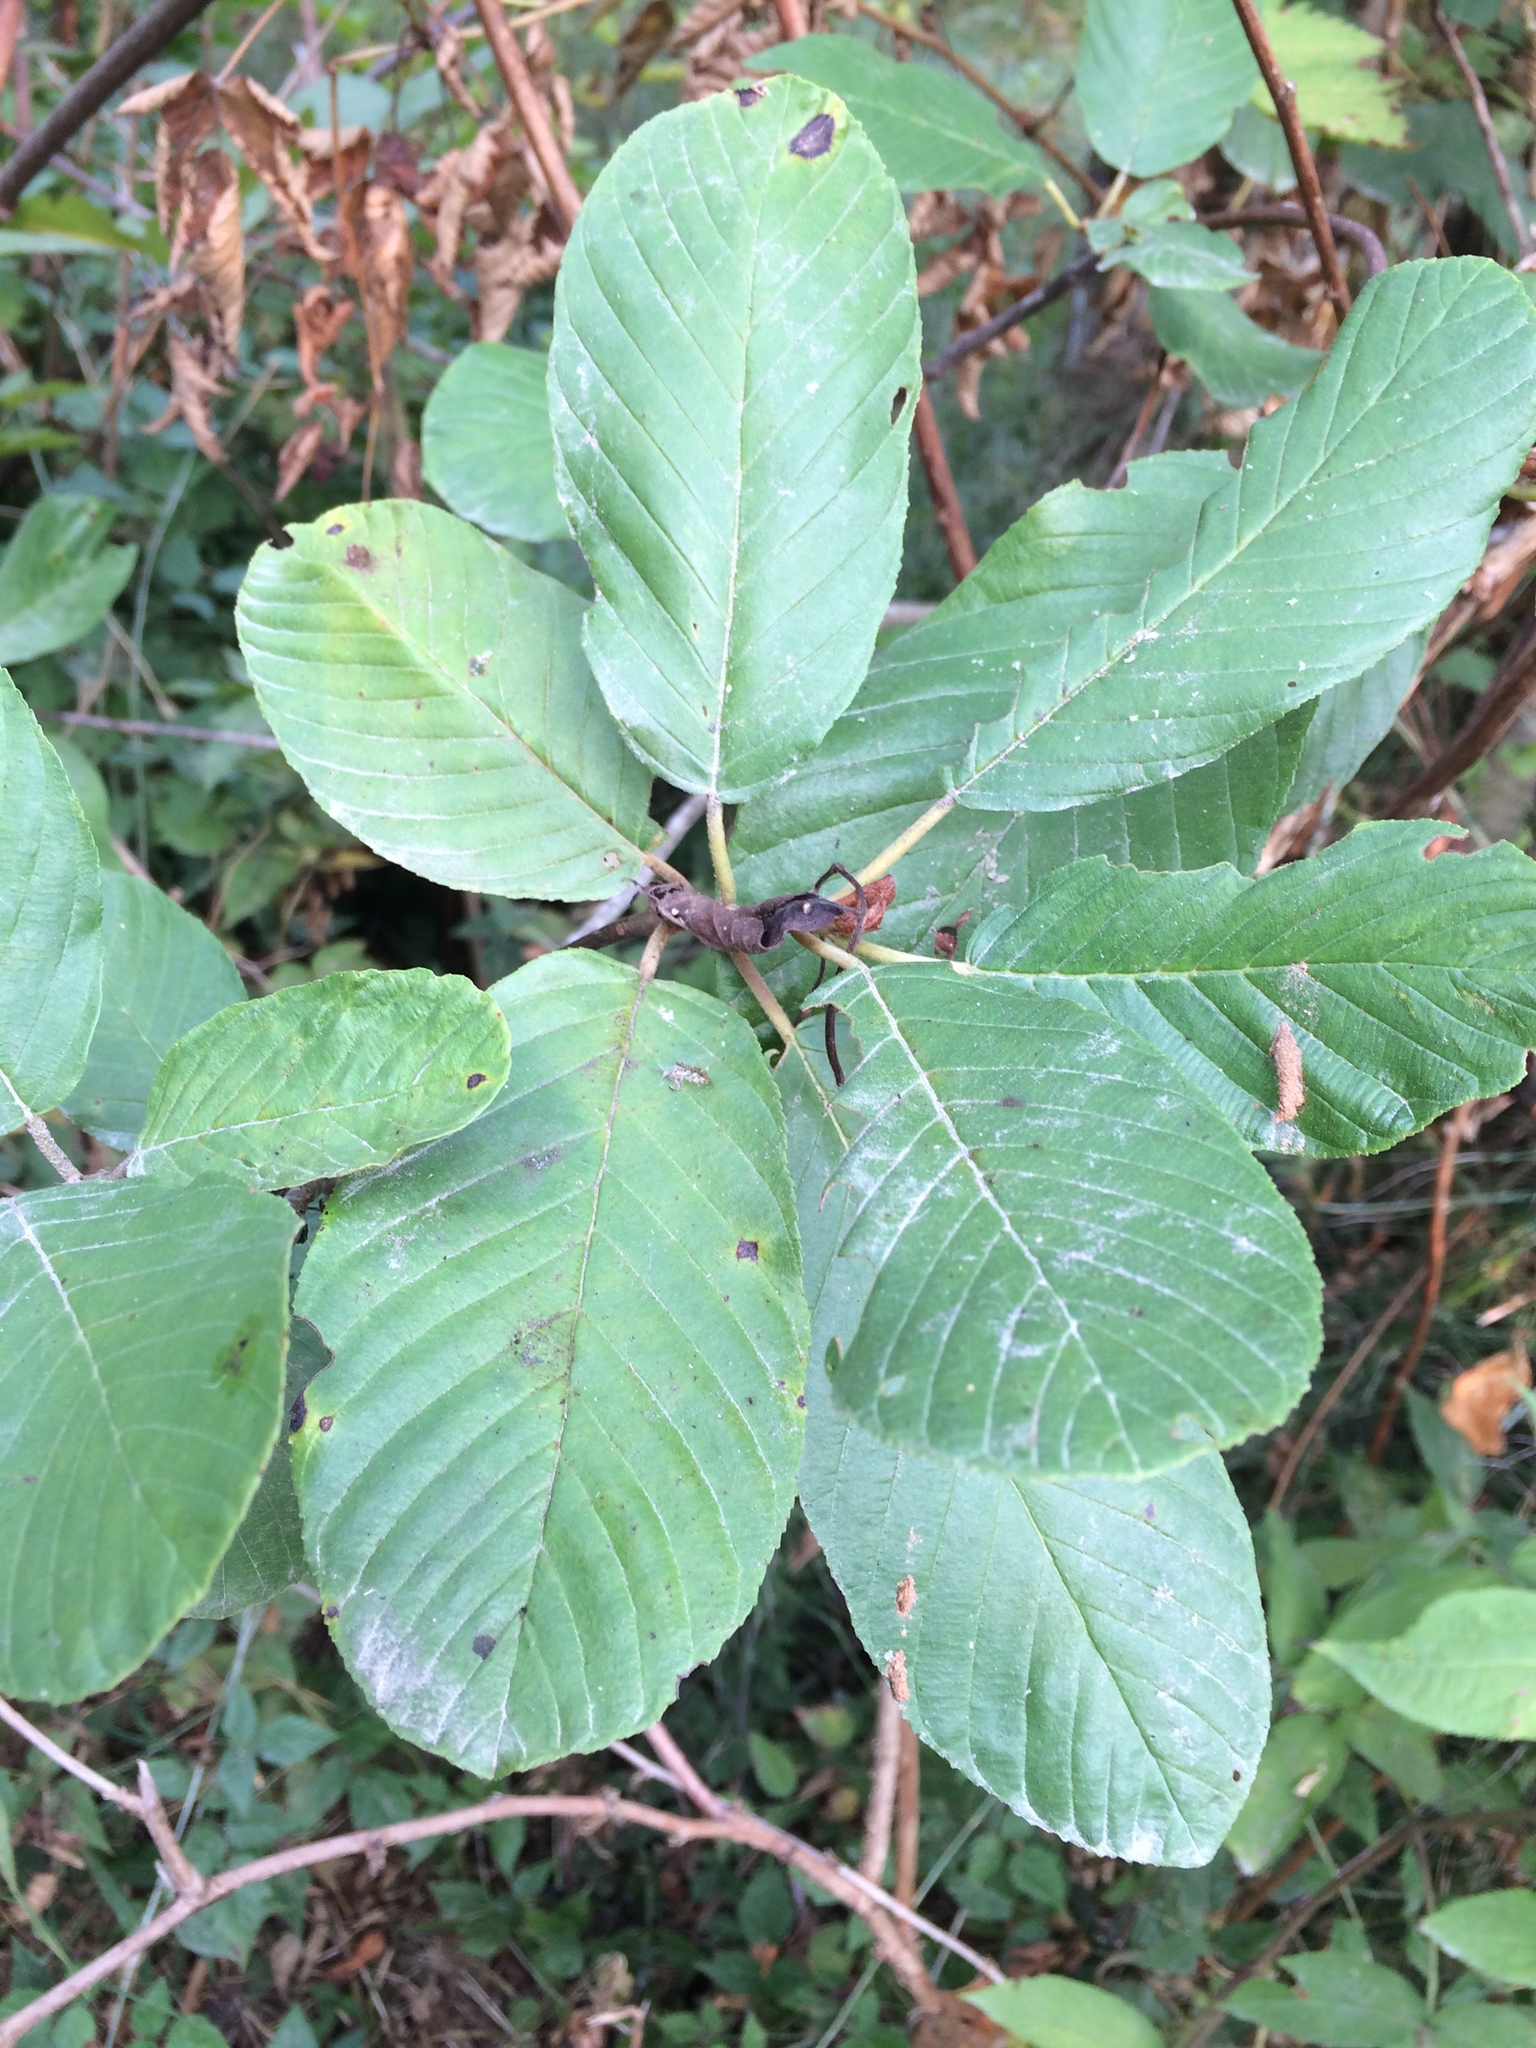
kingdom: Plantae
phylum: Tracheophyta
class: Magnoliopsida
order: Rosales
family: Rhamnaceae
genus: Frangula
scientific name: Frangula purshiana
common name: Cascara buckthorn
